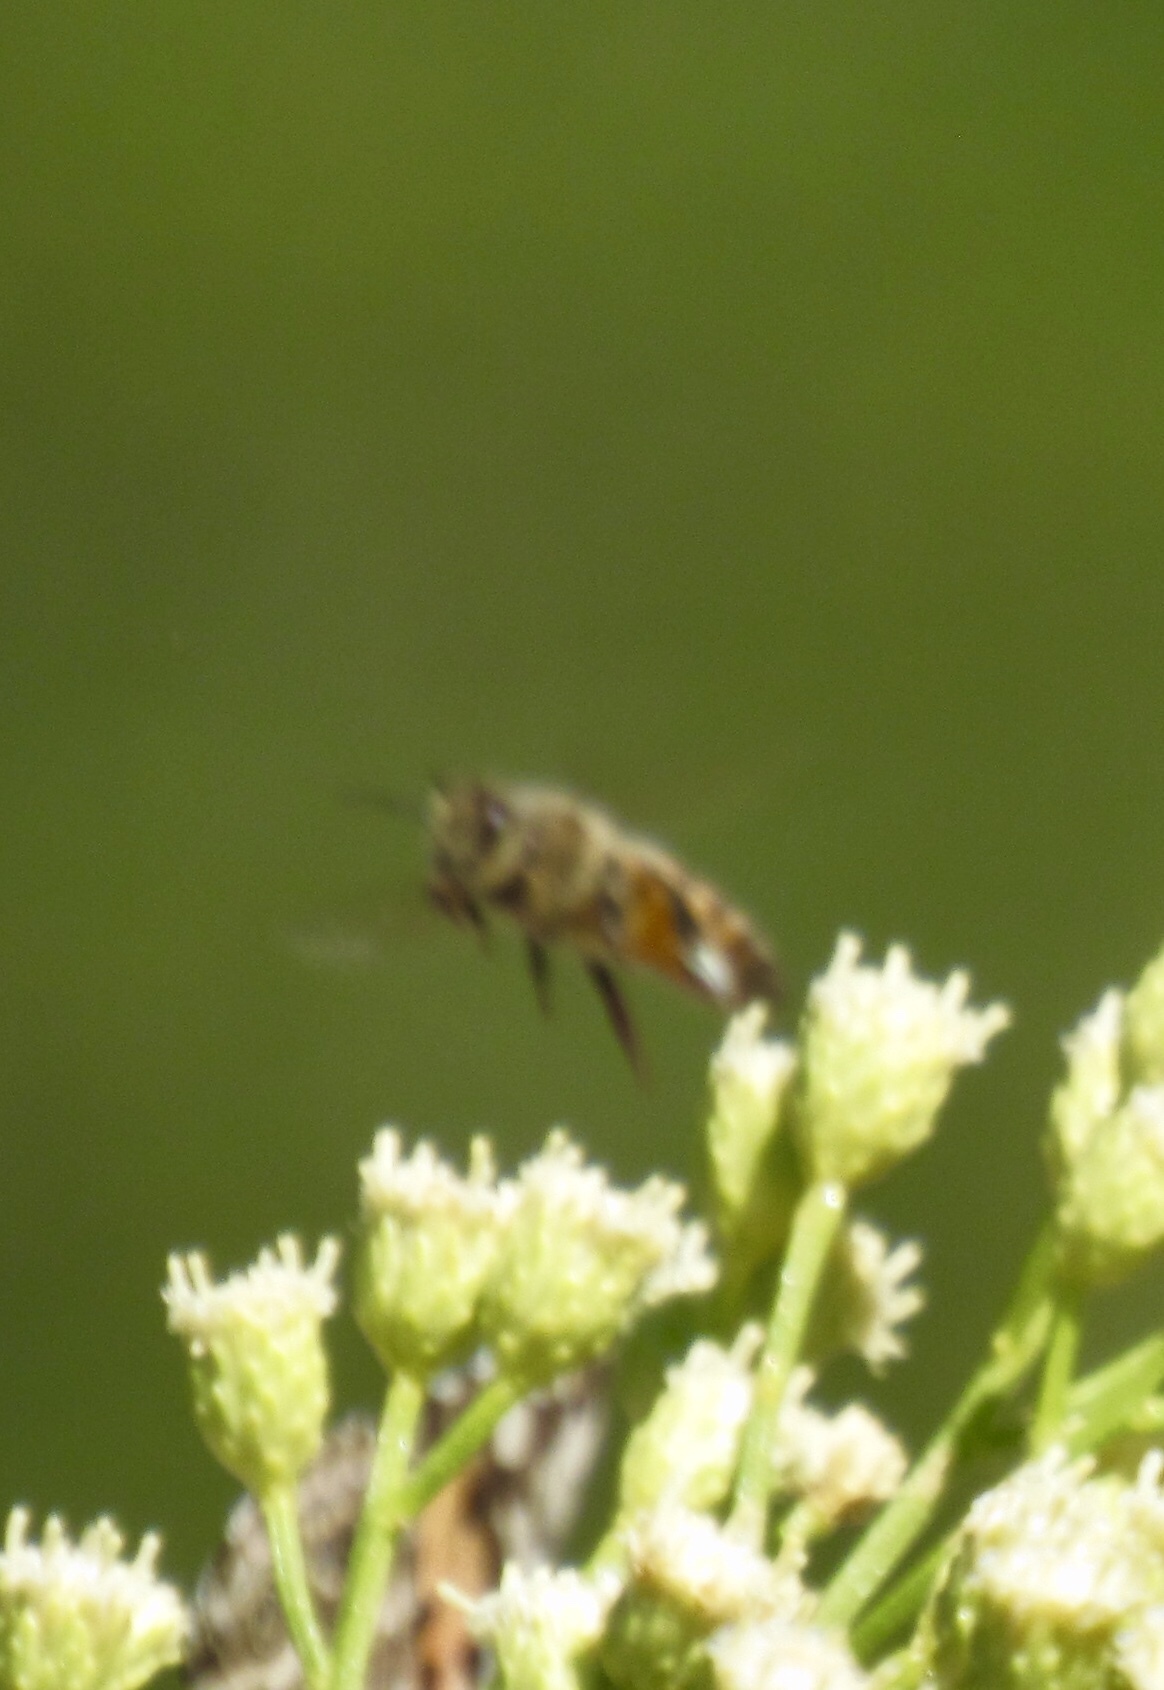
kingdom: Animalia
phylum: Arthropoda
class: Insecta
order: Hymenoptera
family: Apidae
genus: Apis
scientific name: Apis mellifera
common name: Honey bee
